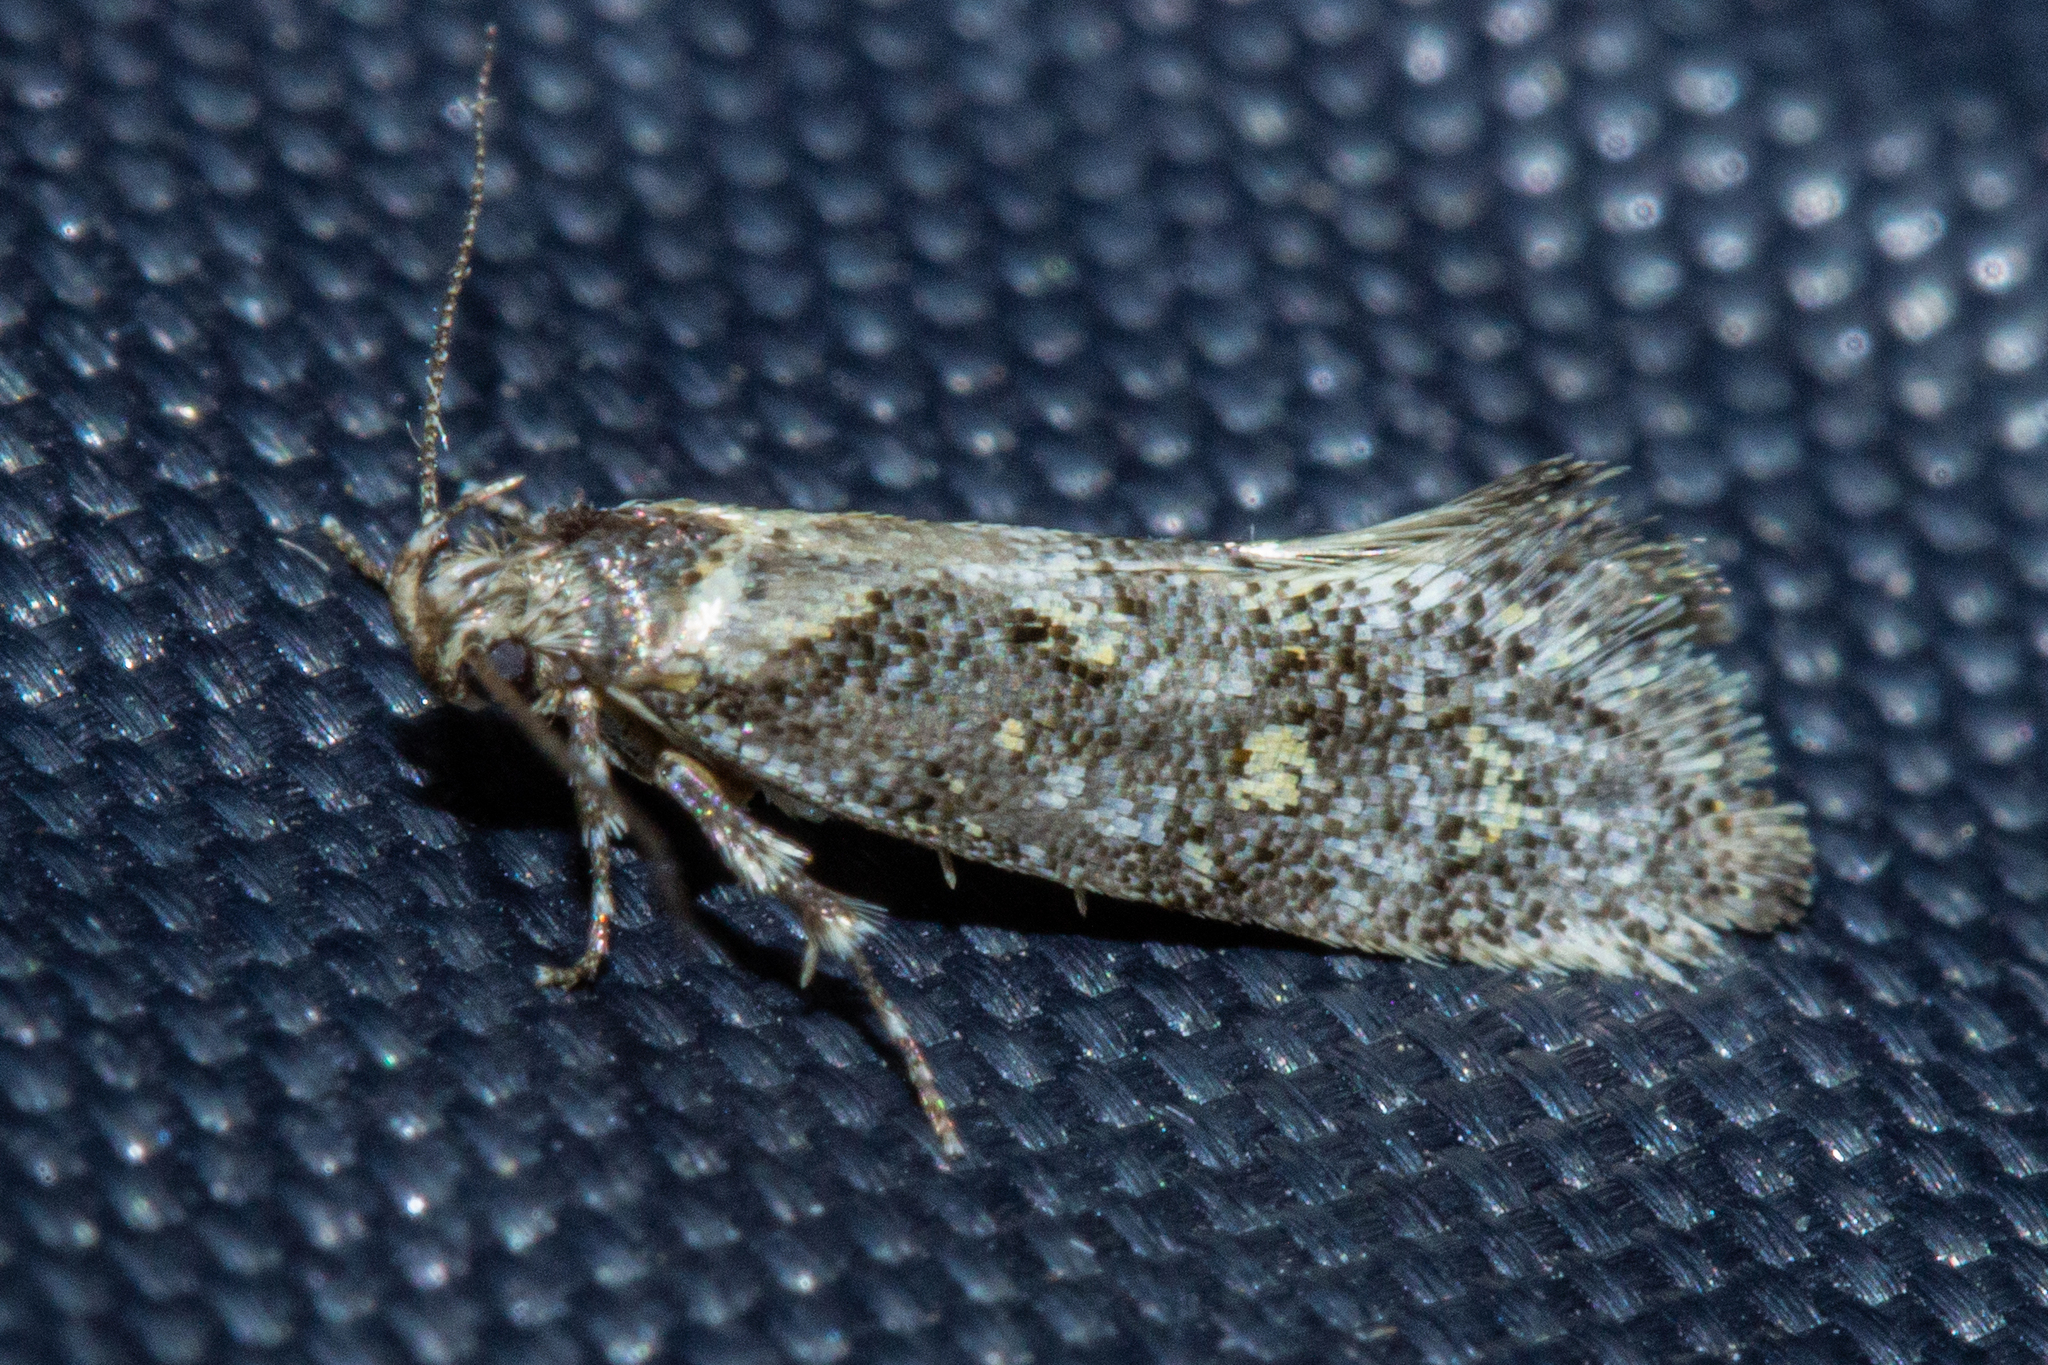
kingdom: Animalia
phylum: Arthropoda
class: Insecta
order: Lepidoptera
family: Oecophoridae
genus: Tingena
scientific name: Tingena lassa
